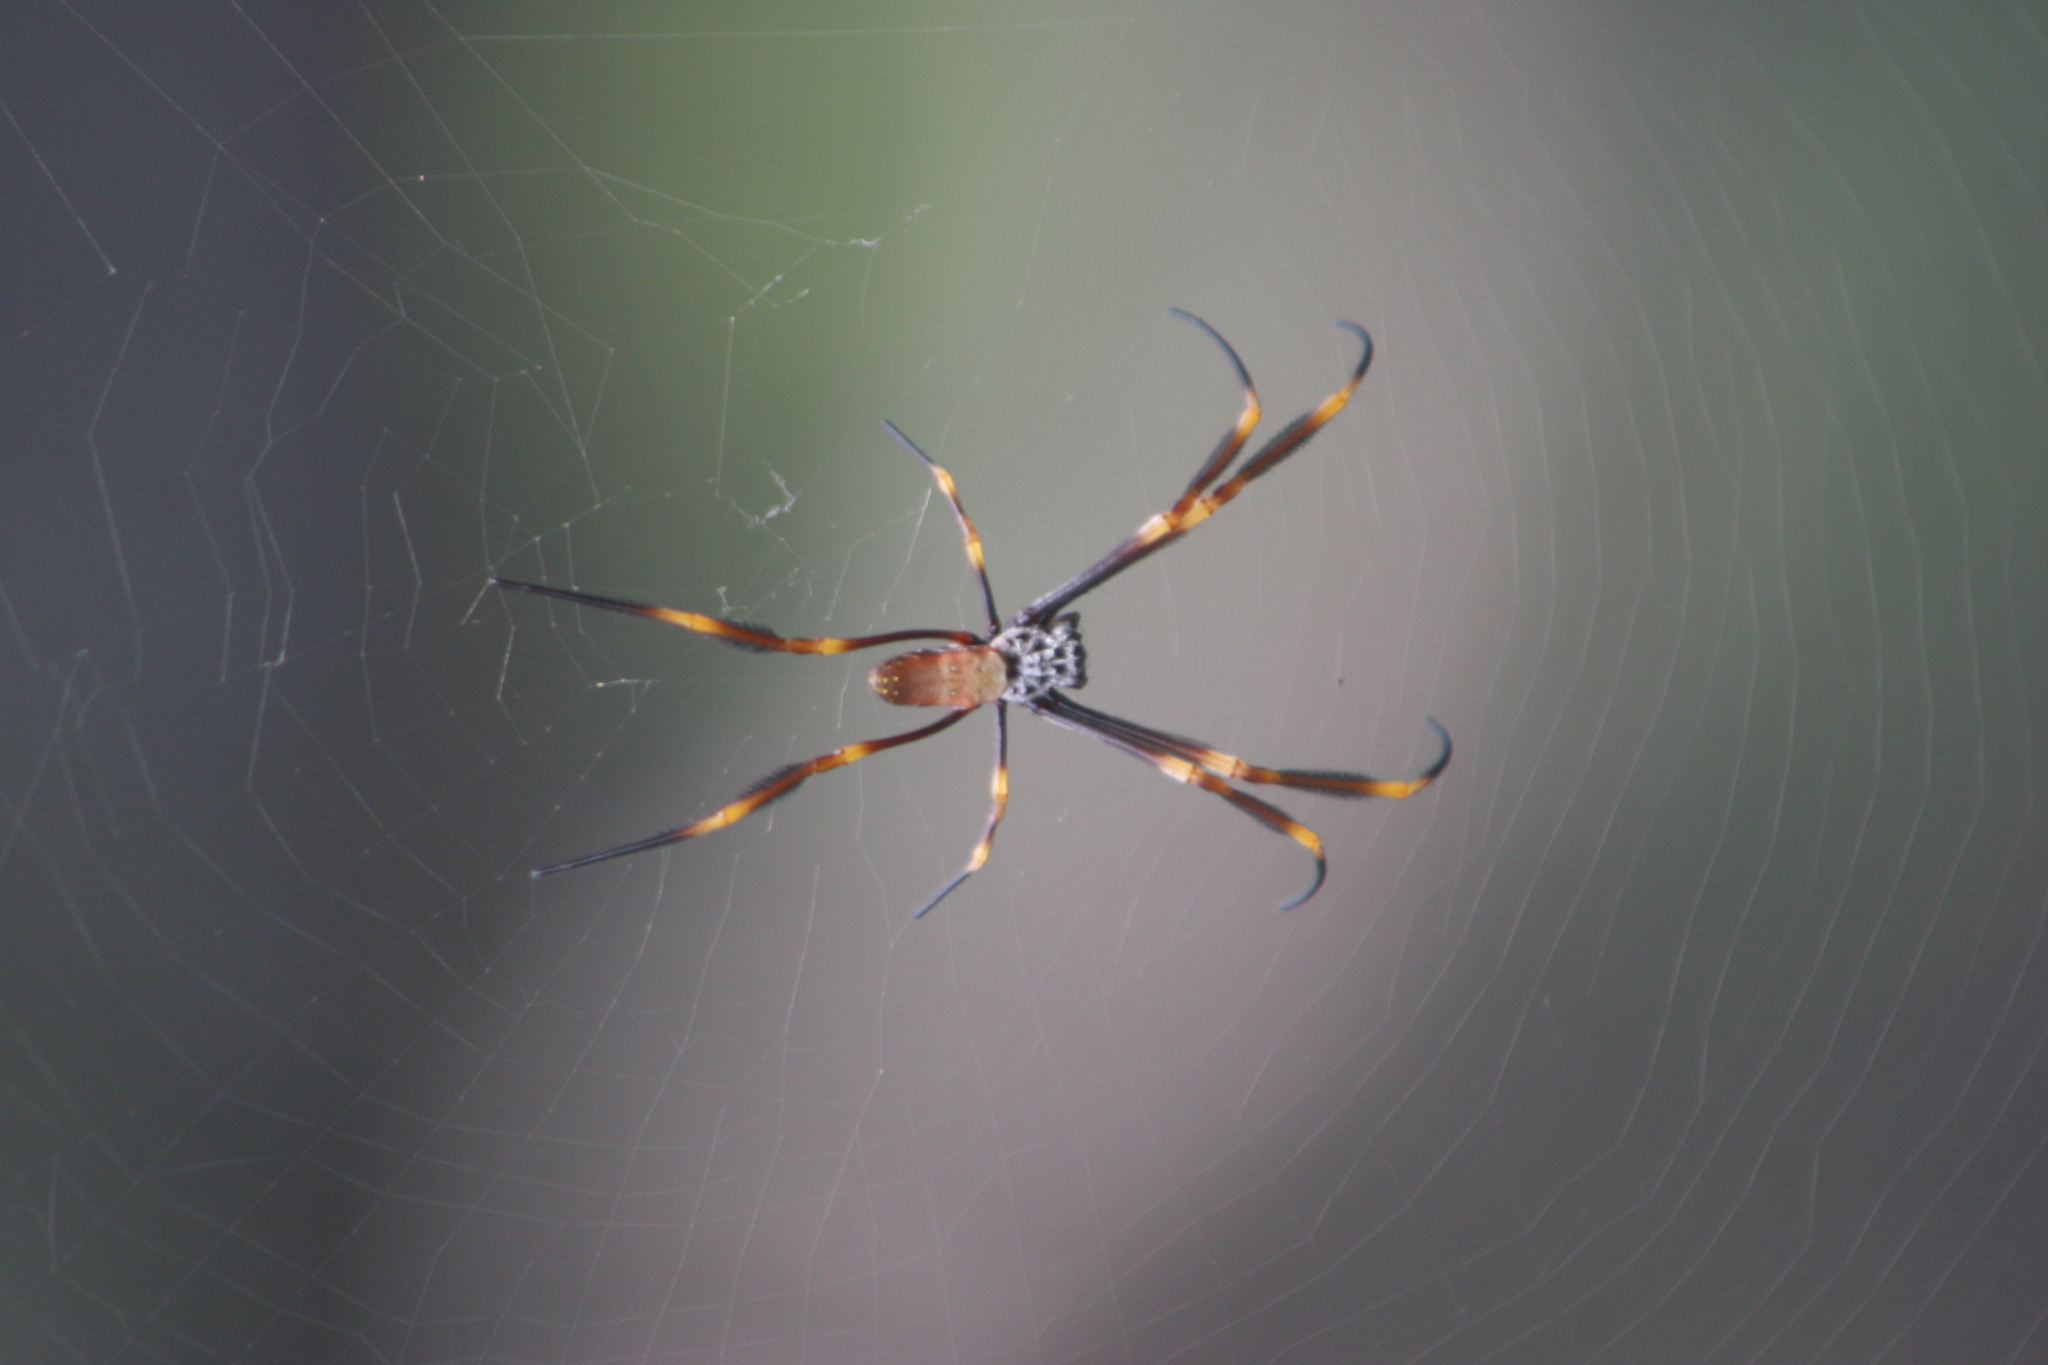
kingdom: Animalia
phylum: Arthropoda
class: Arachnida
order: Araneae
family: Araneidae
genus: Trichonephila
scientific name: Trichonephila plumipes
